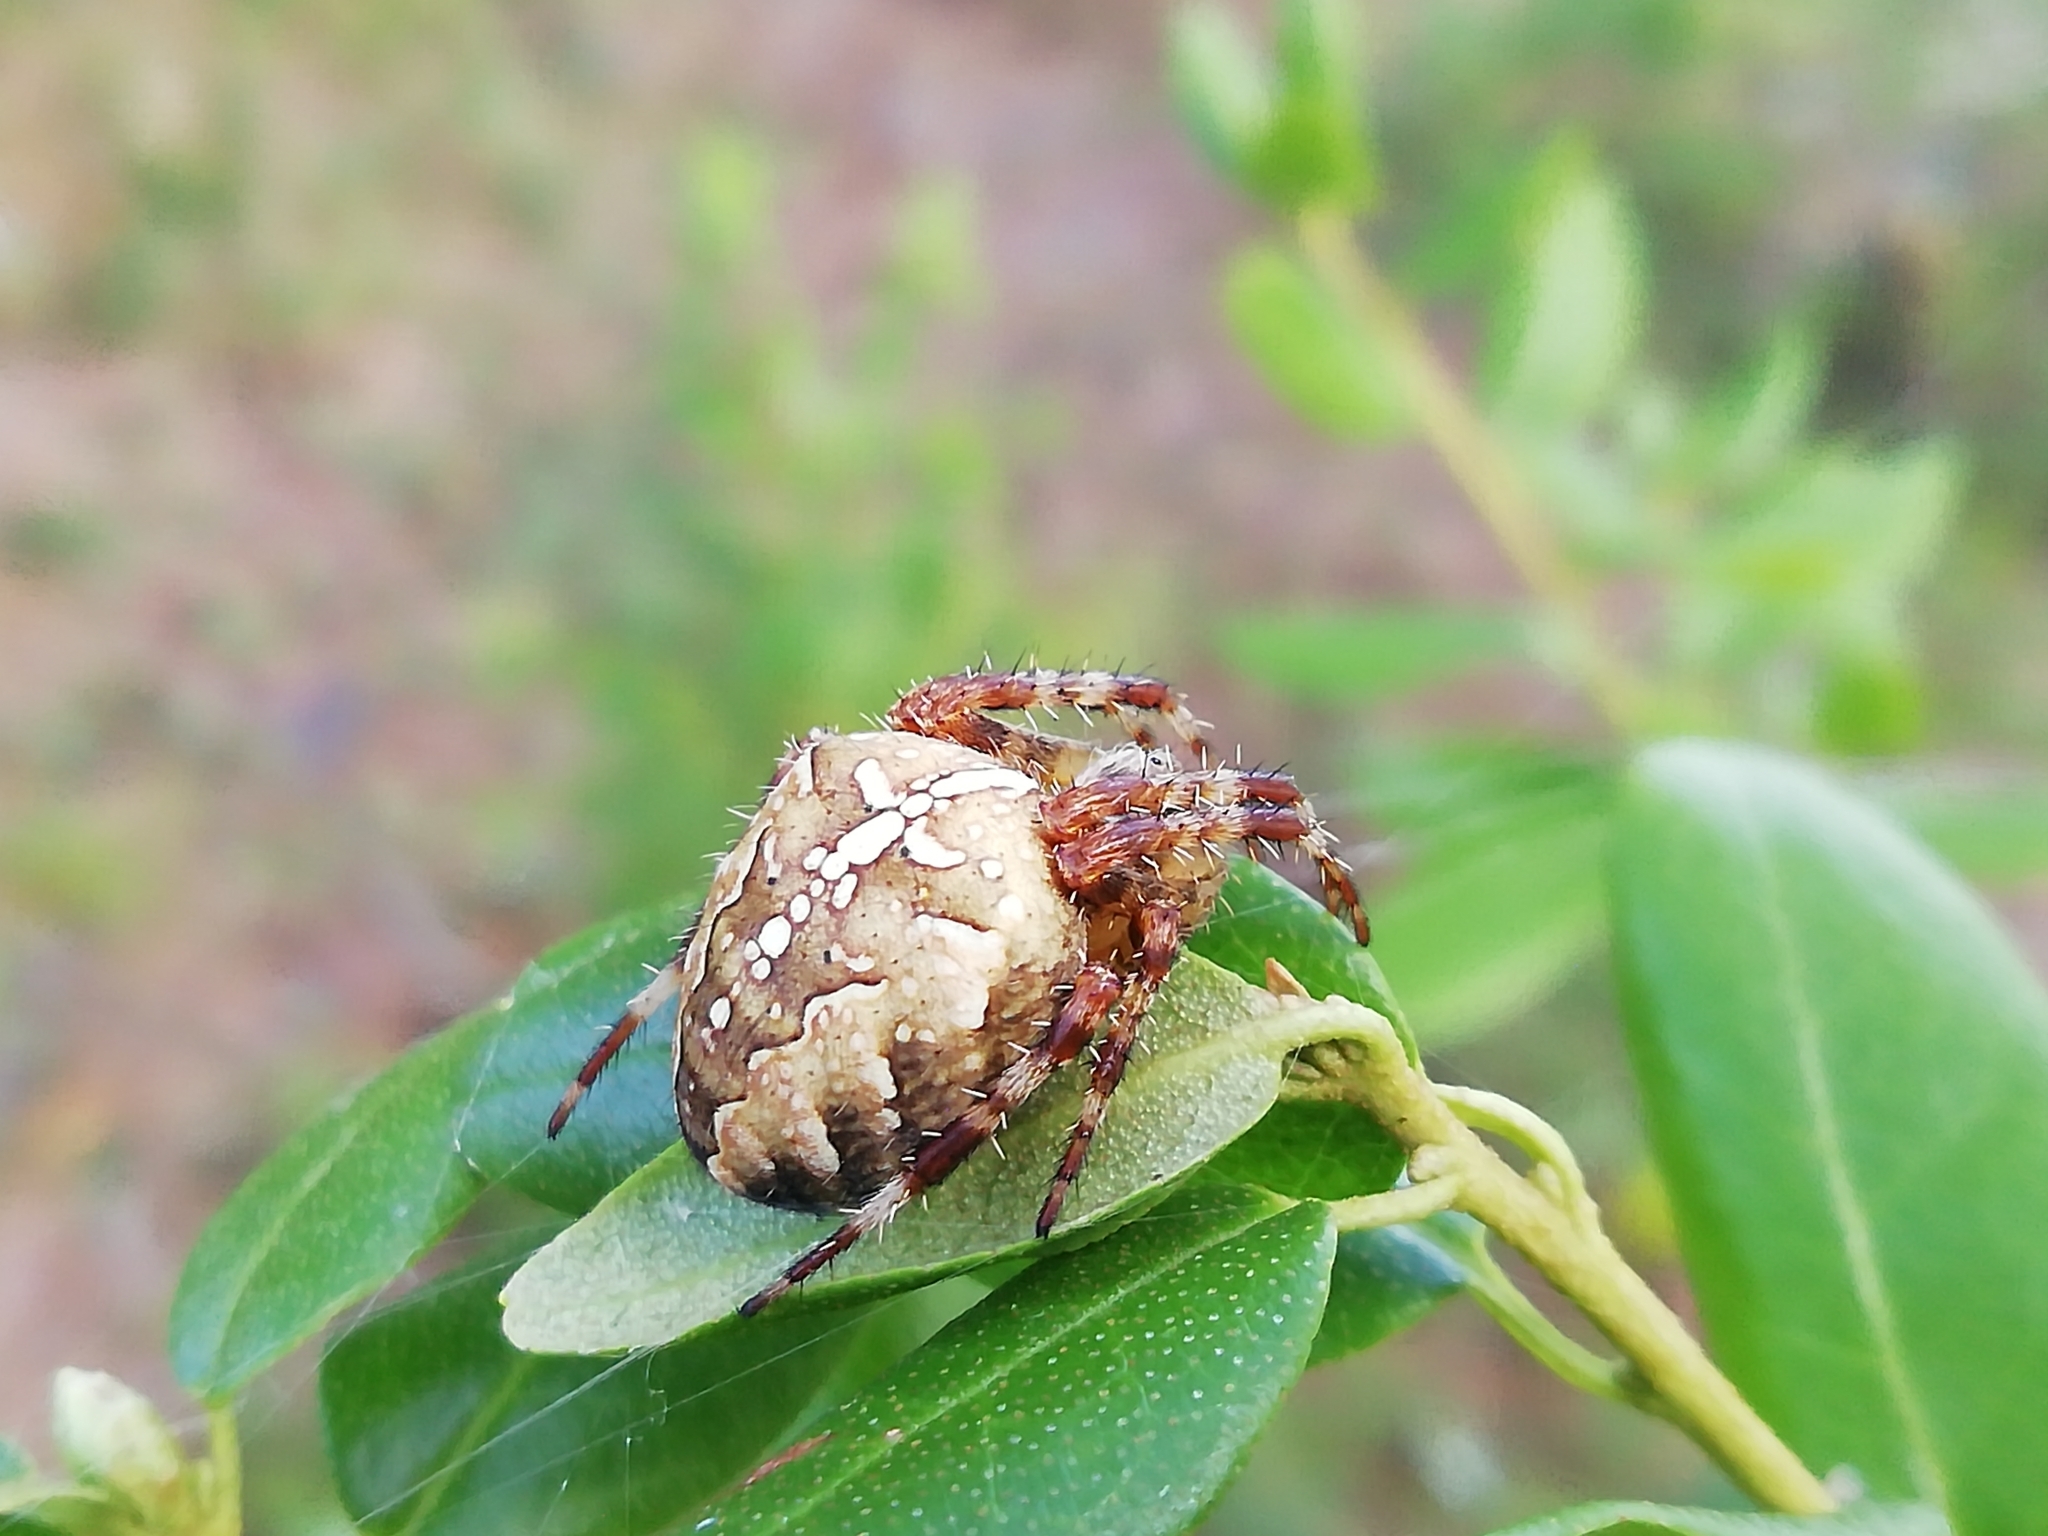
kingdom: Animalia
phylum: Arthropoda
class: Arachnida
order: Araneae
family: Araneidae
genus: Araneus
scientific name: Araneus diadematus
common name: Cross orbweaver
